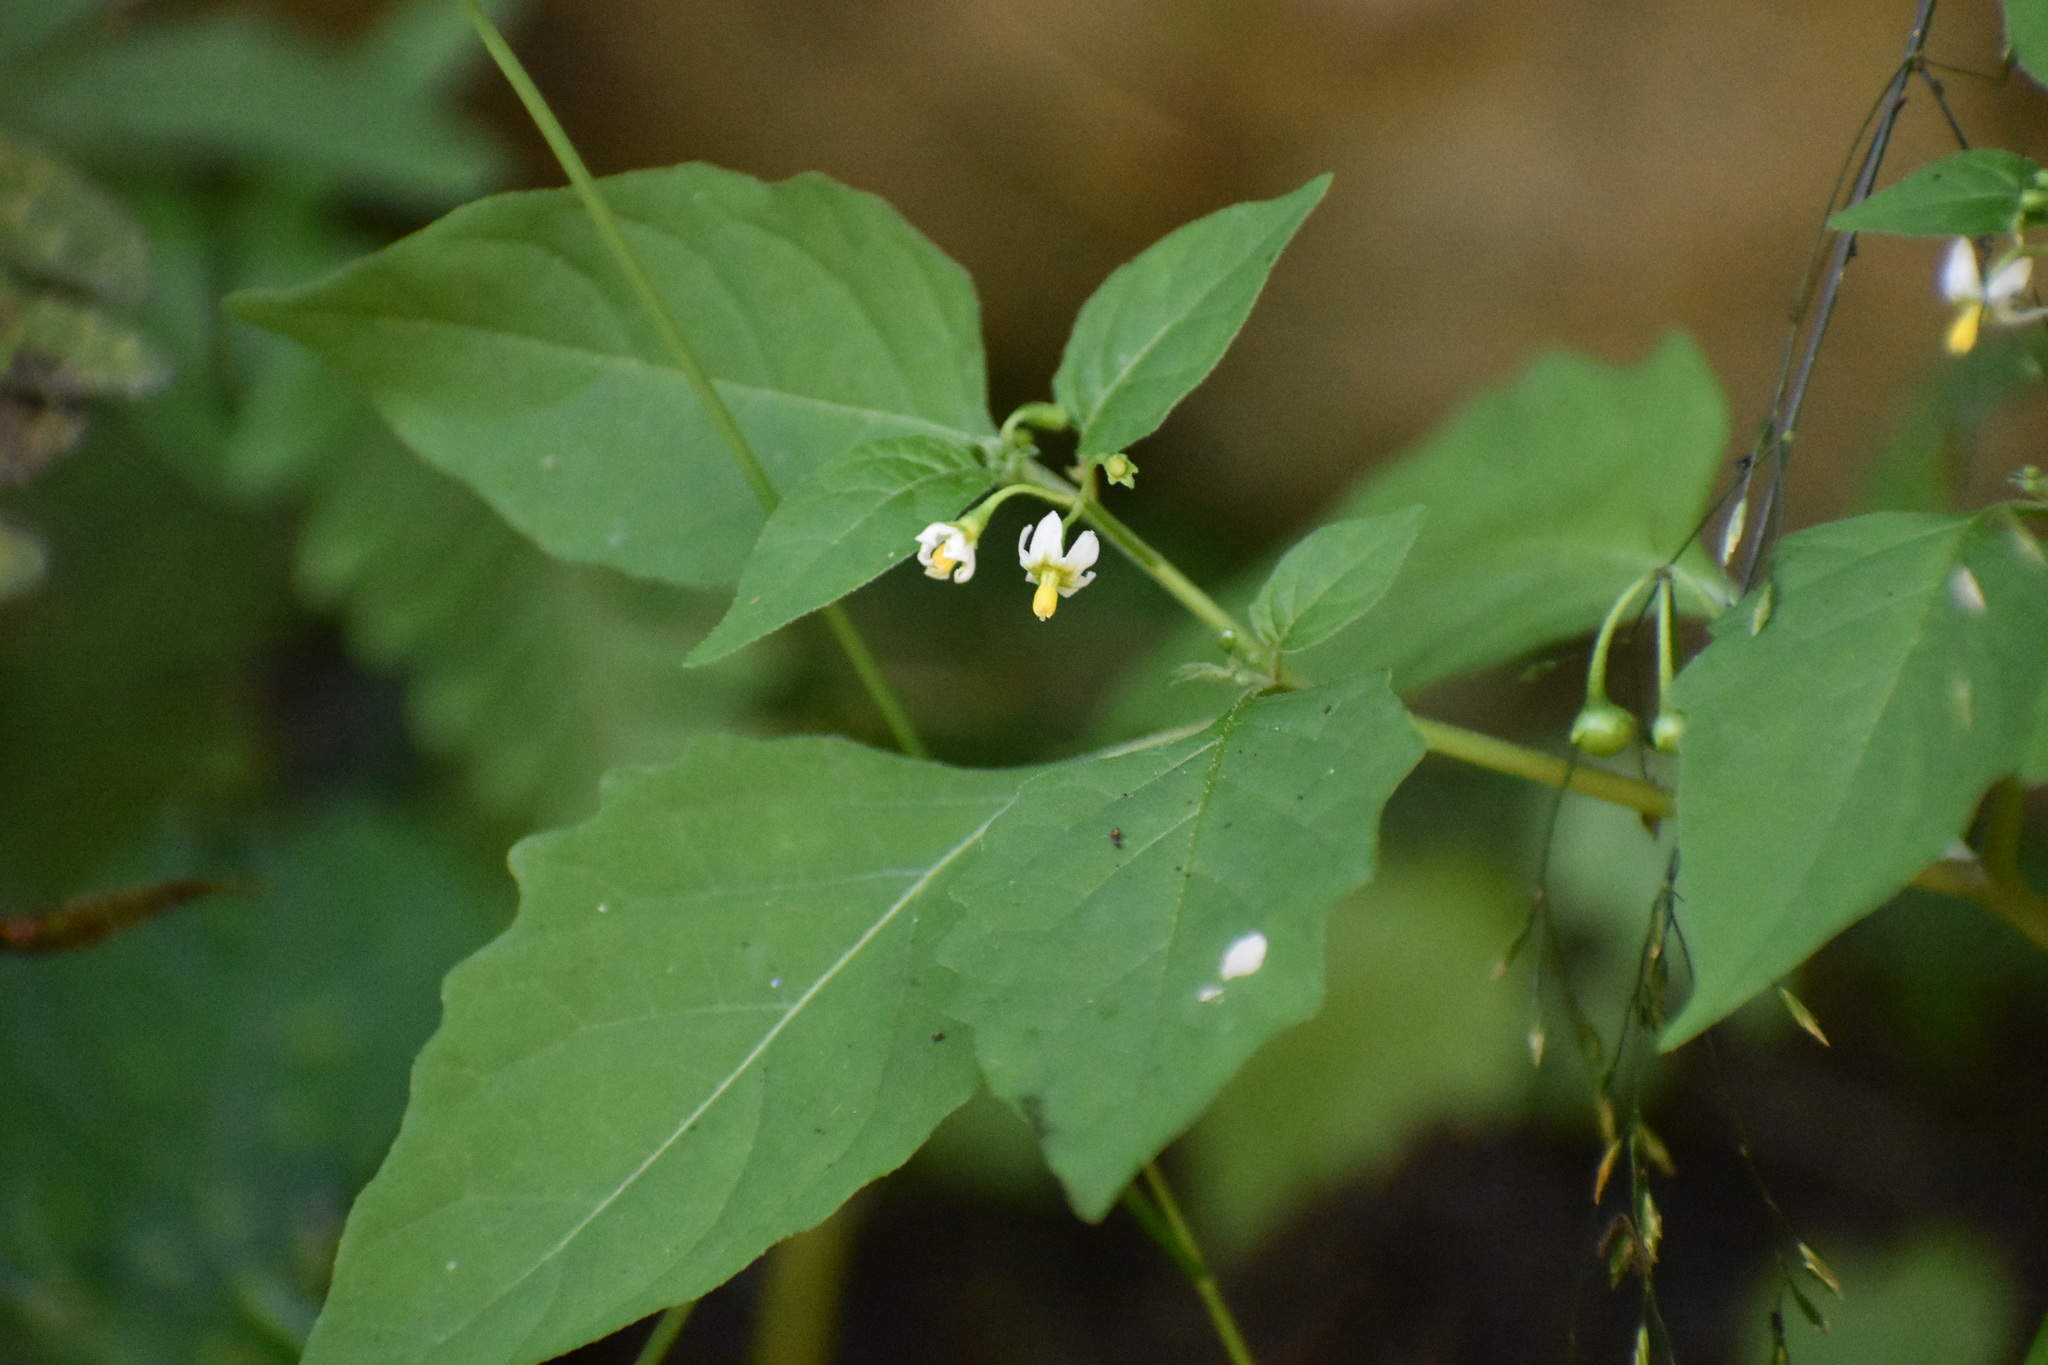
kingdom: Plantae
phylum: Tracheophyta
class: Magnoliopsida
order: Solanales
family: Solanaceae
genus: Solanum
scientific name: Solanum emulans
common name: Eastern black nightshade
